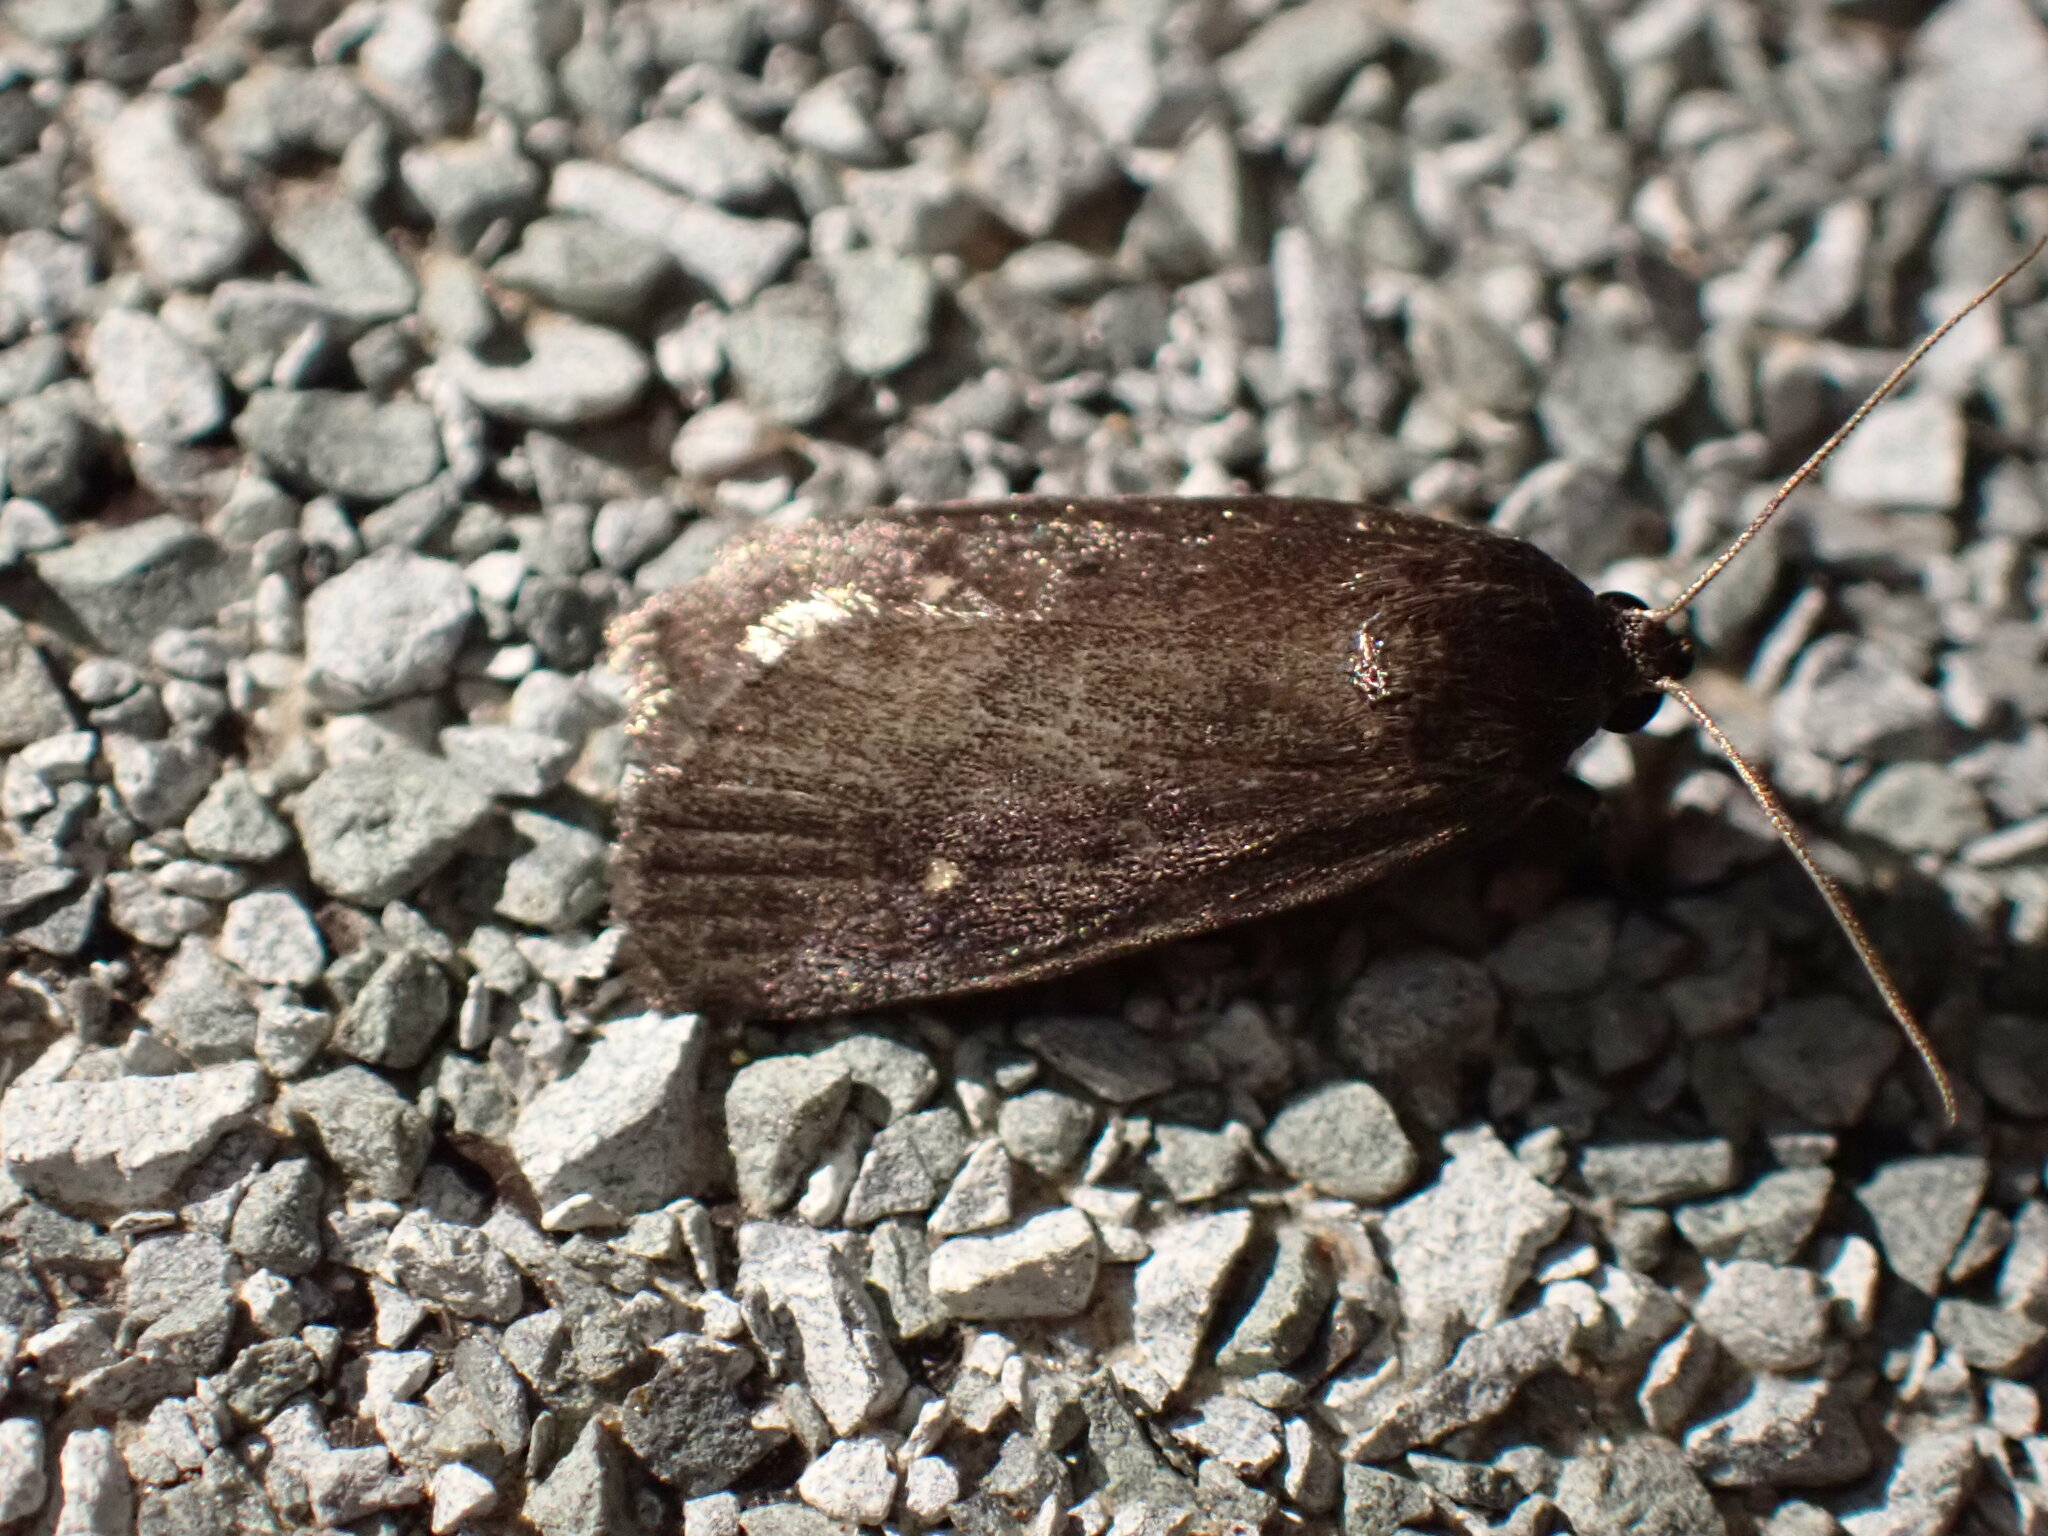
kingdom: Animalia
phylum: Arthropoda
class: Insecta
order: Lepidoptera
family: Noctuidae
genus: Proxenus
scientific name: Proxenus miranda
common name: Miranda moth
